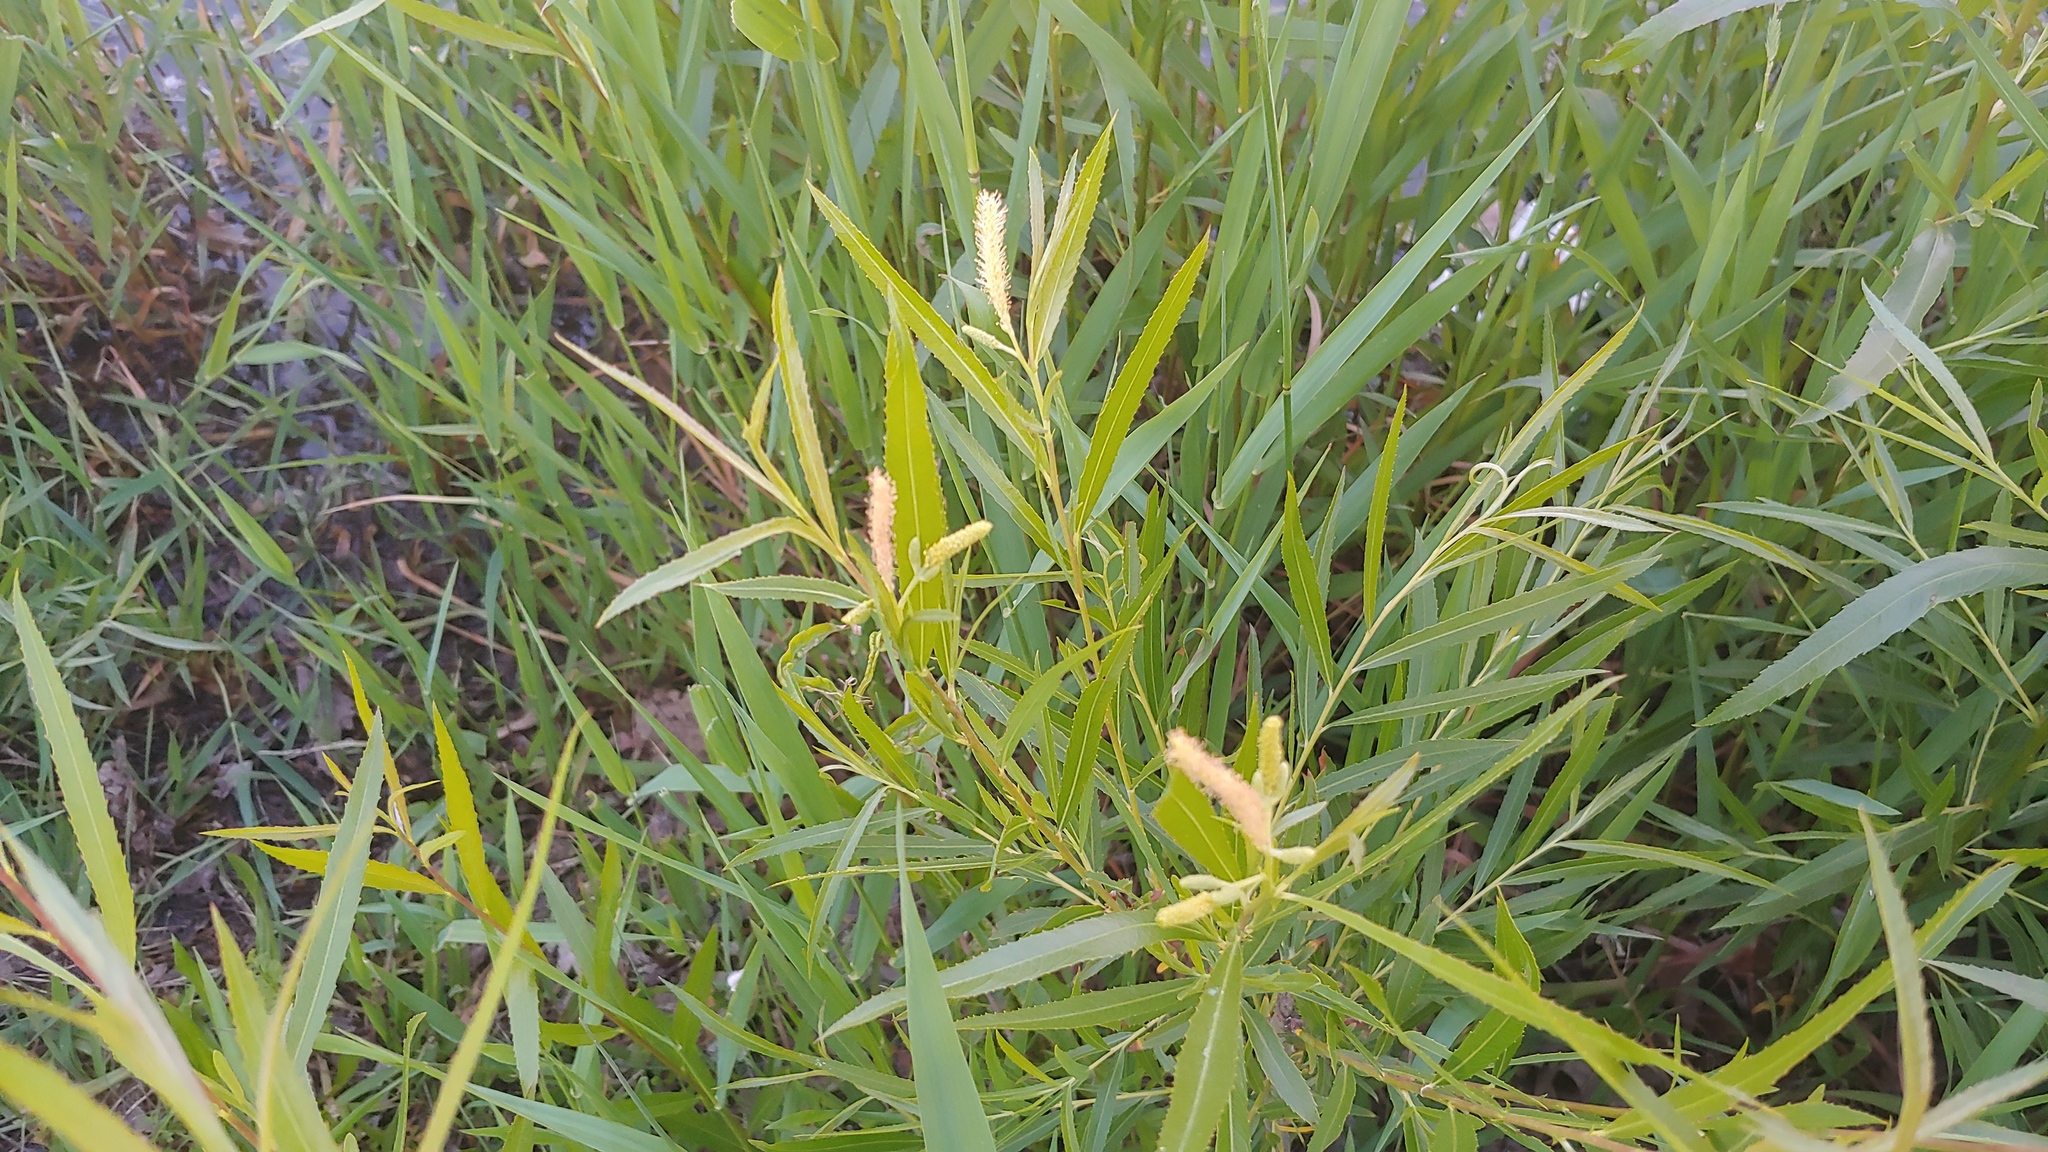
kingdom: Plantae
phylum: Tracheophyta
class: Magnoliopsida
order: Malpighiales
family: Salicaceae
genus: Salix
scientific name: Salix interior
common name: Sandbar willow
